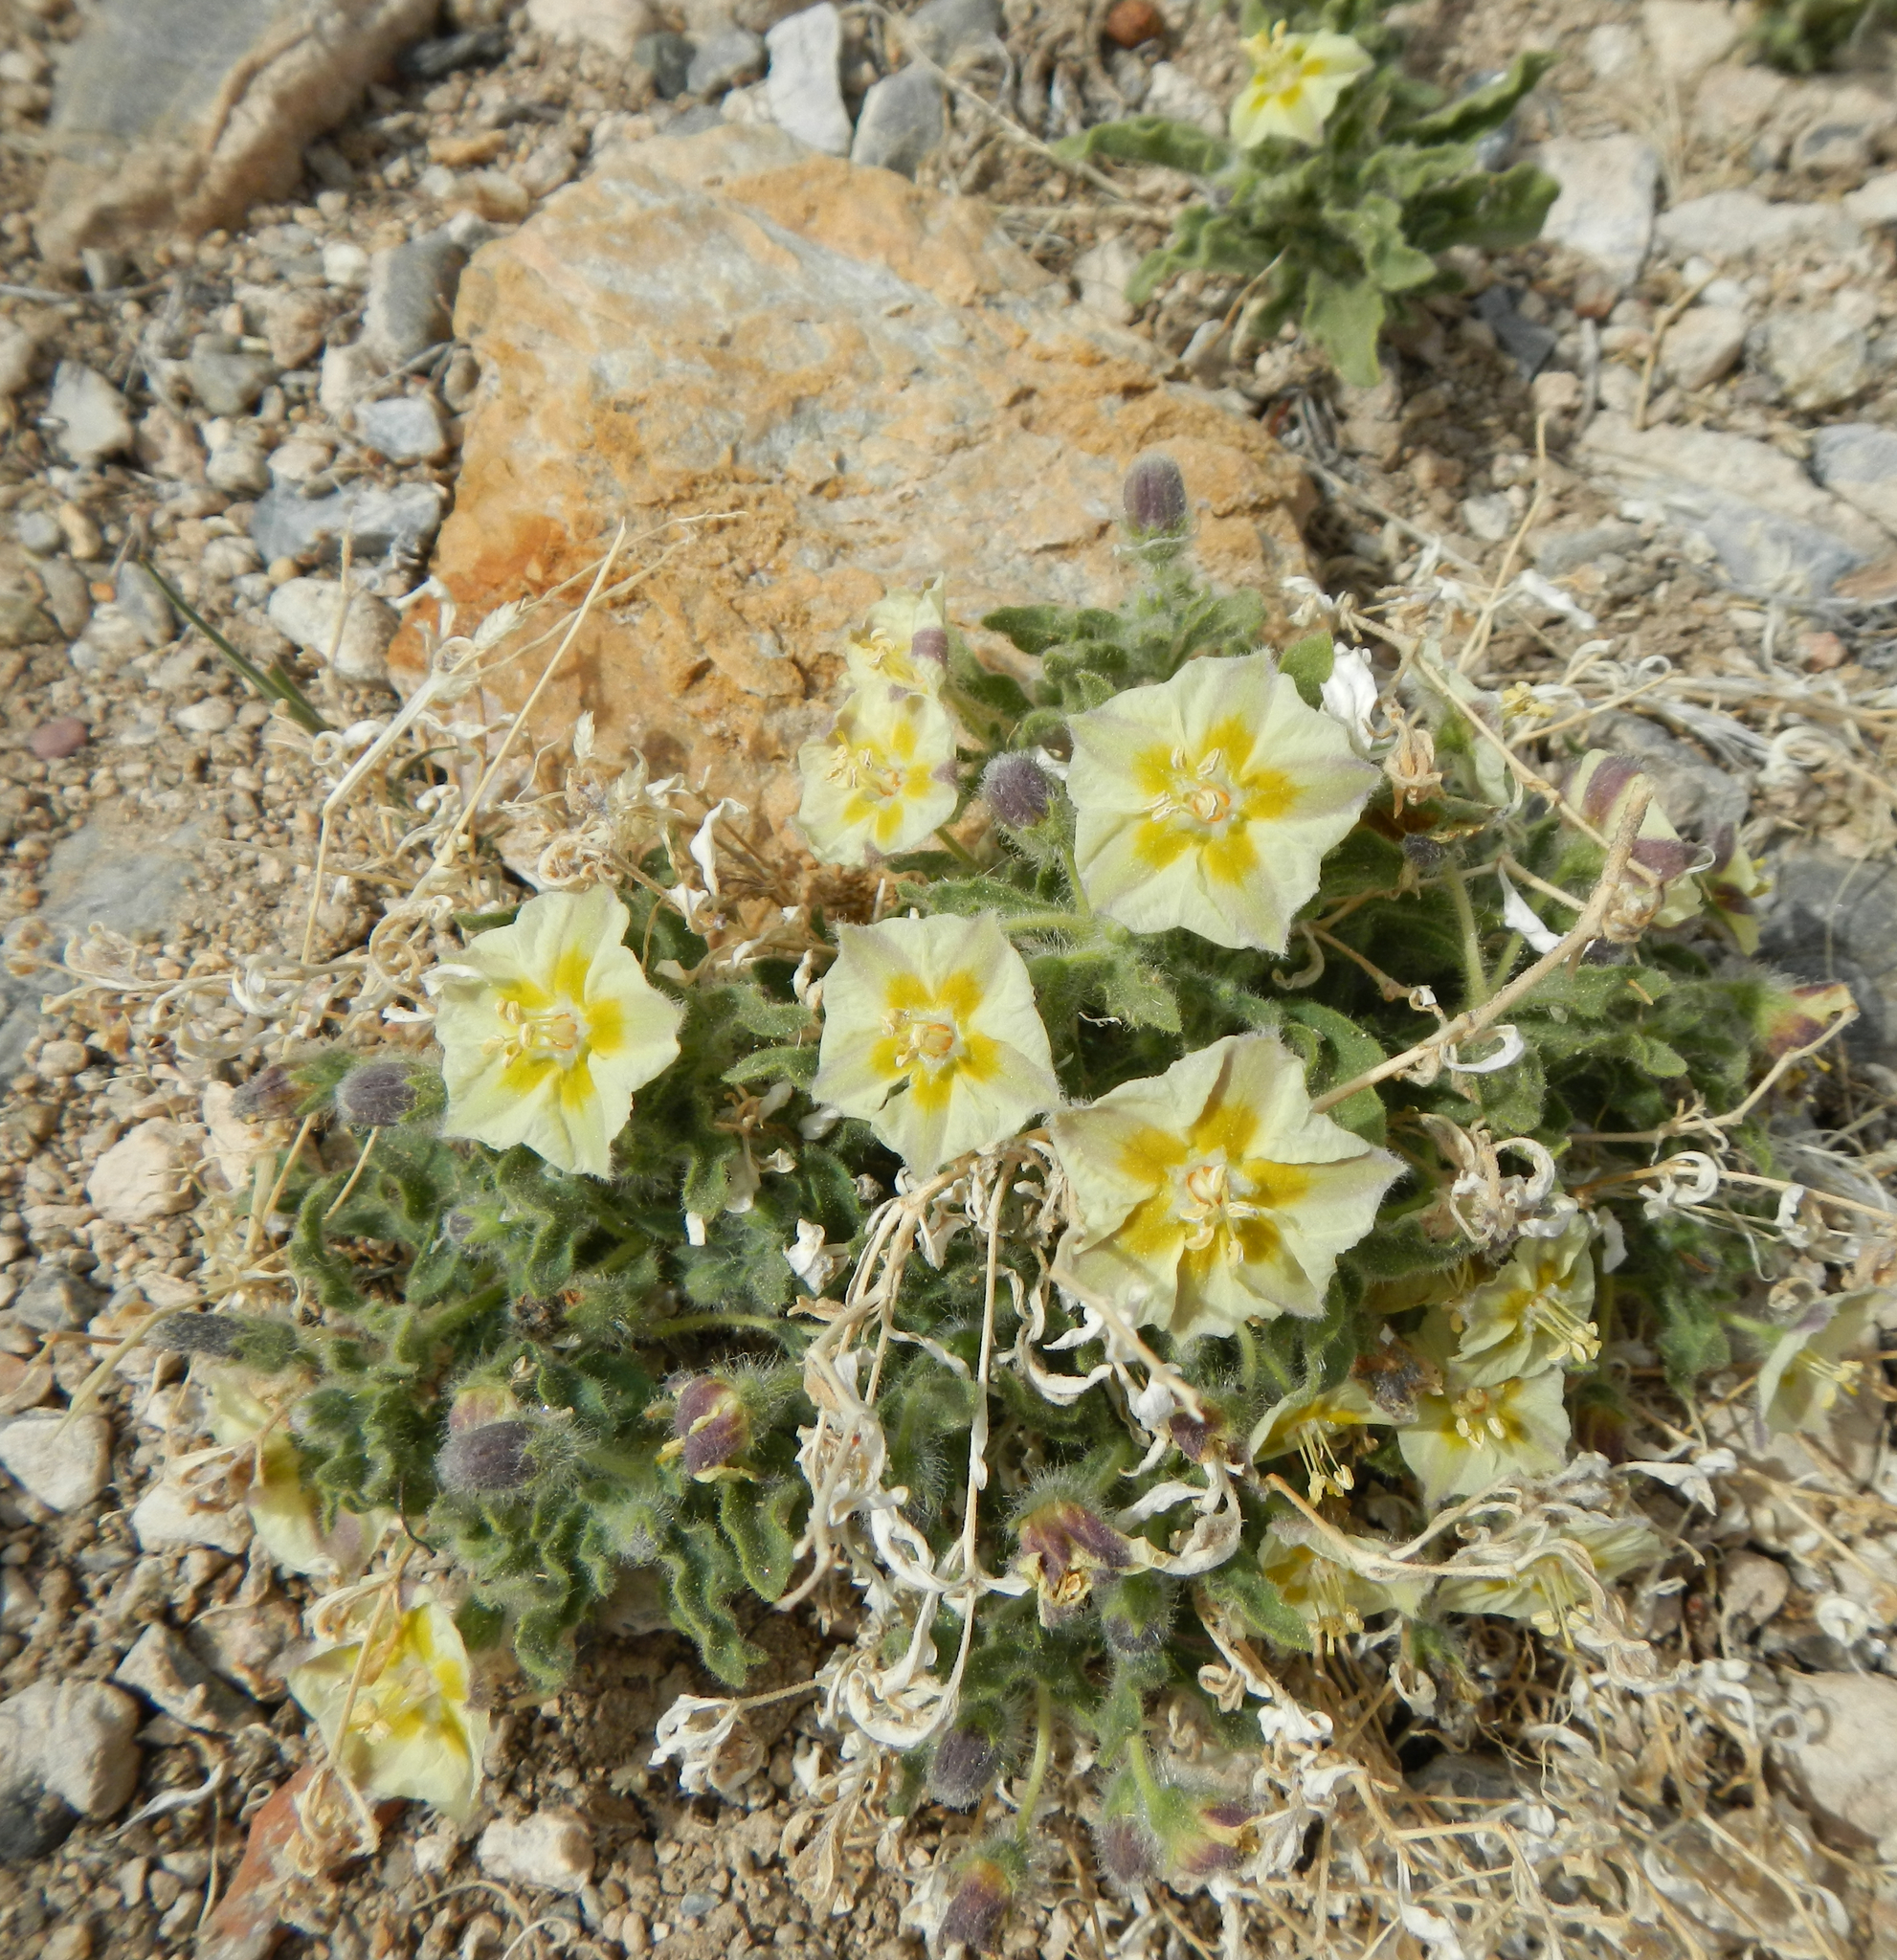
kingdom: Plantae
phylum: Tracheophyta
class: Magnoliopsida
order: Solanales
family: Solanaceae
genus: Chamaesaracha
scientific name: Chamaesaracha sordida
